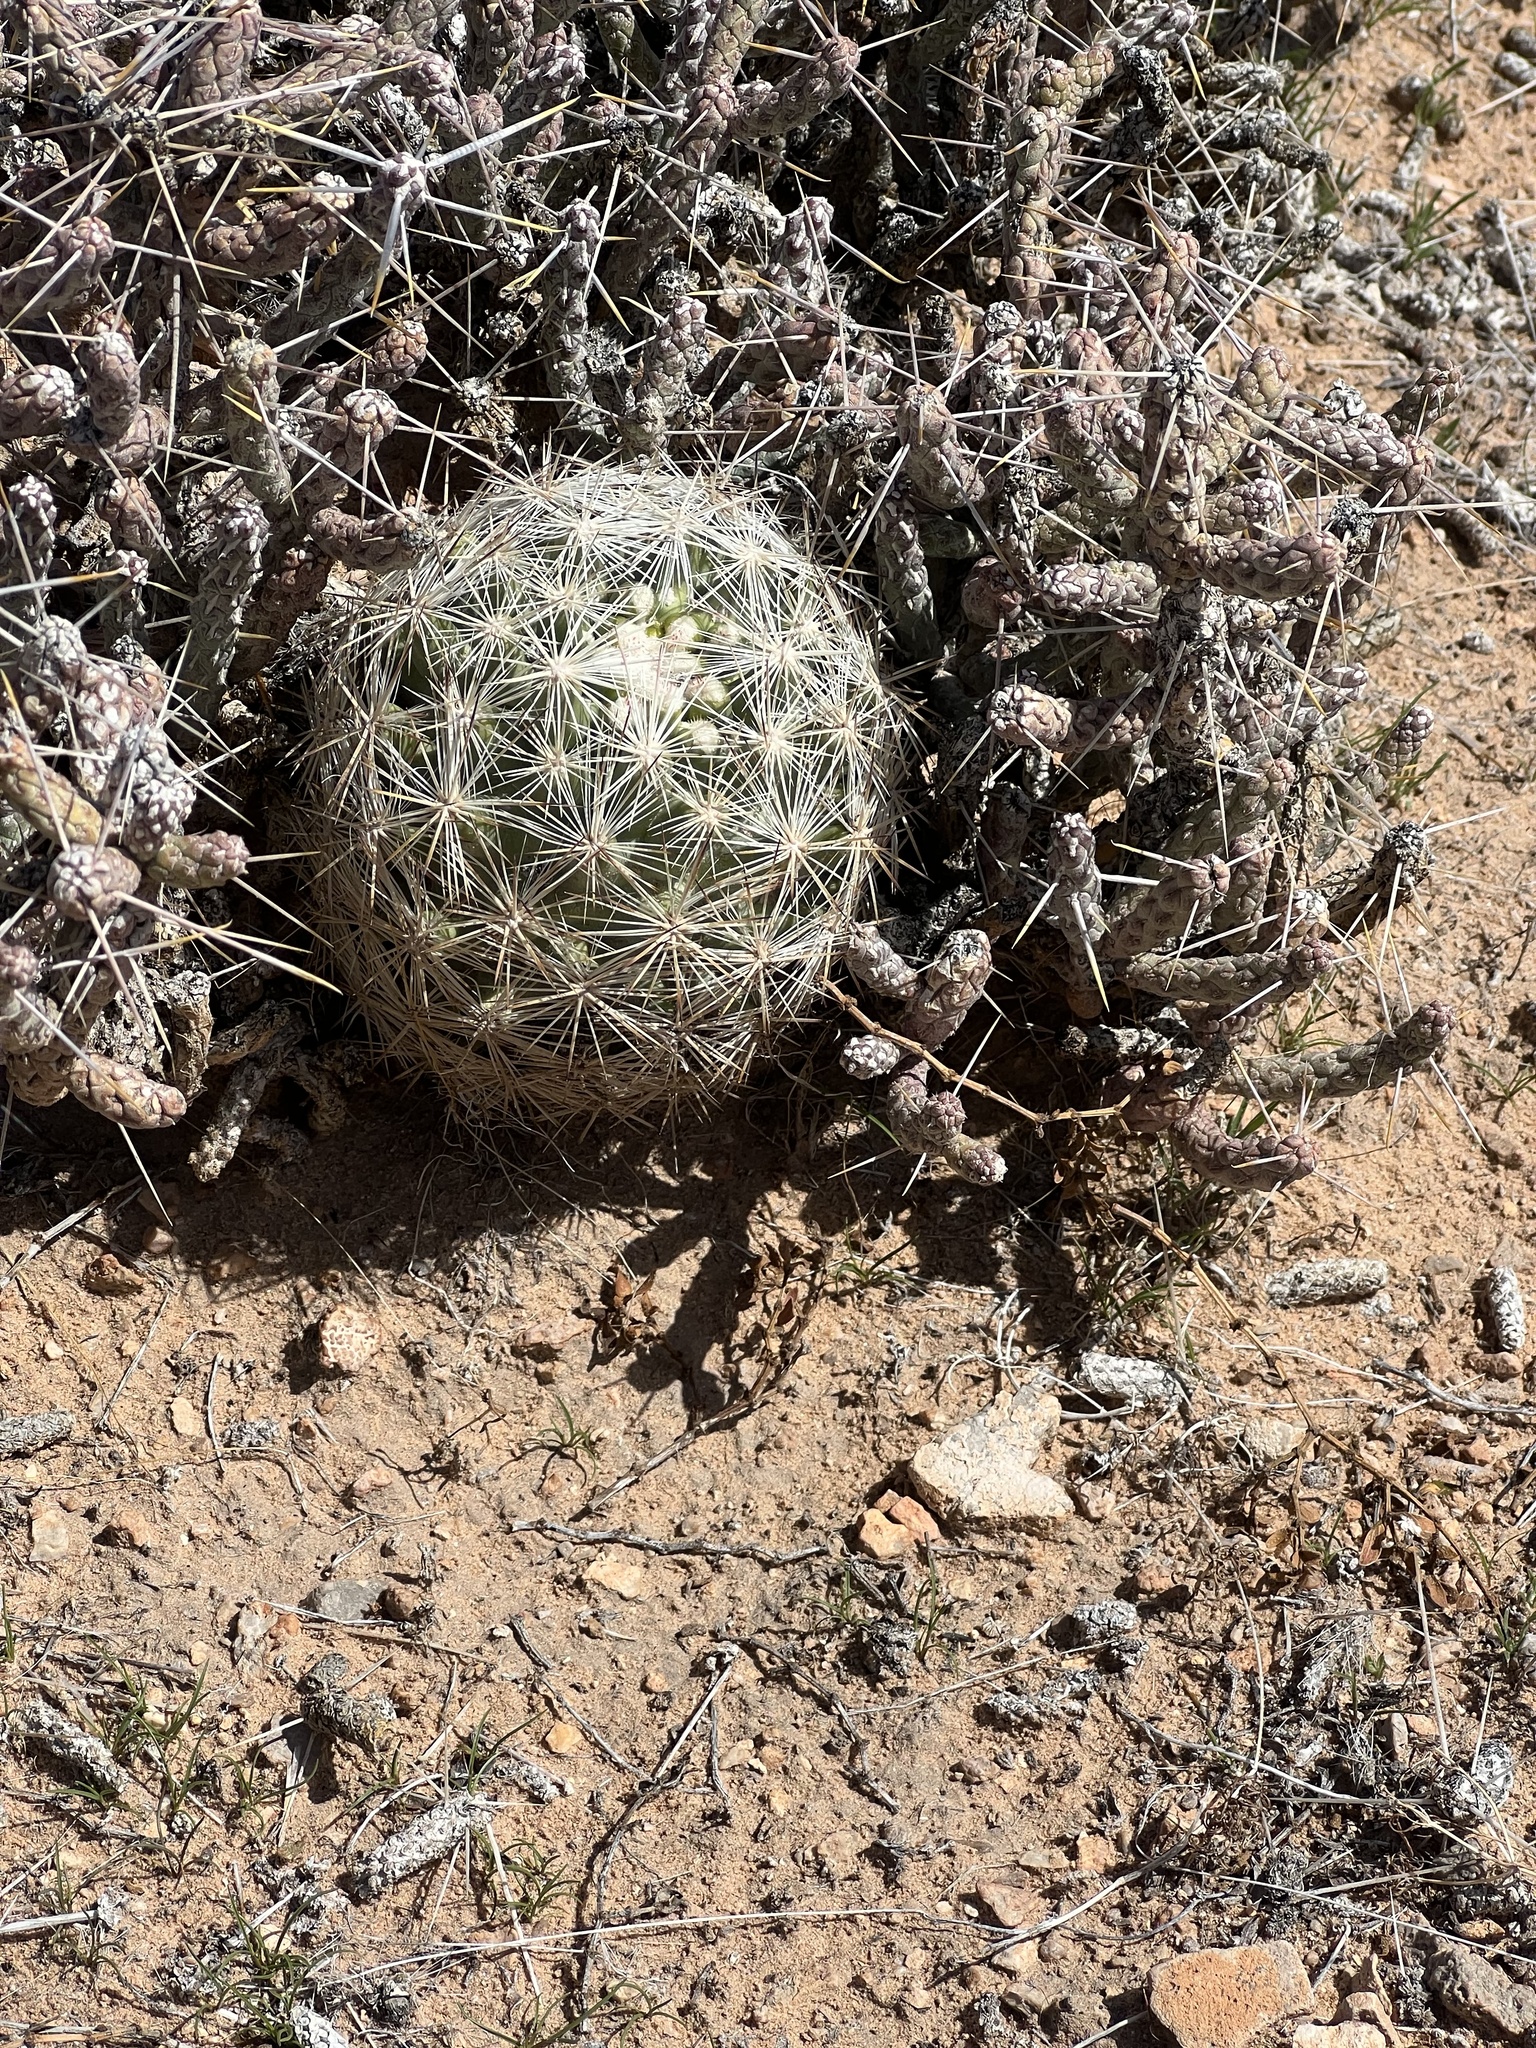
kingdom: Plantae
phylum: Tracheophyta
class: Magnoliopsida
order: Caryophyllales
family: Cactaceae
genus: Pelecyphora
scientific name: Pelecyphora dasyacantha
